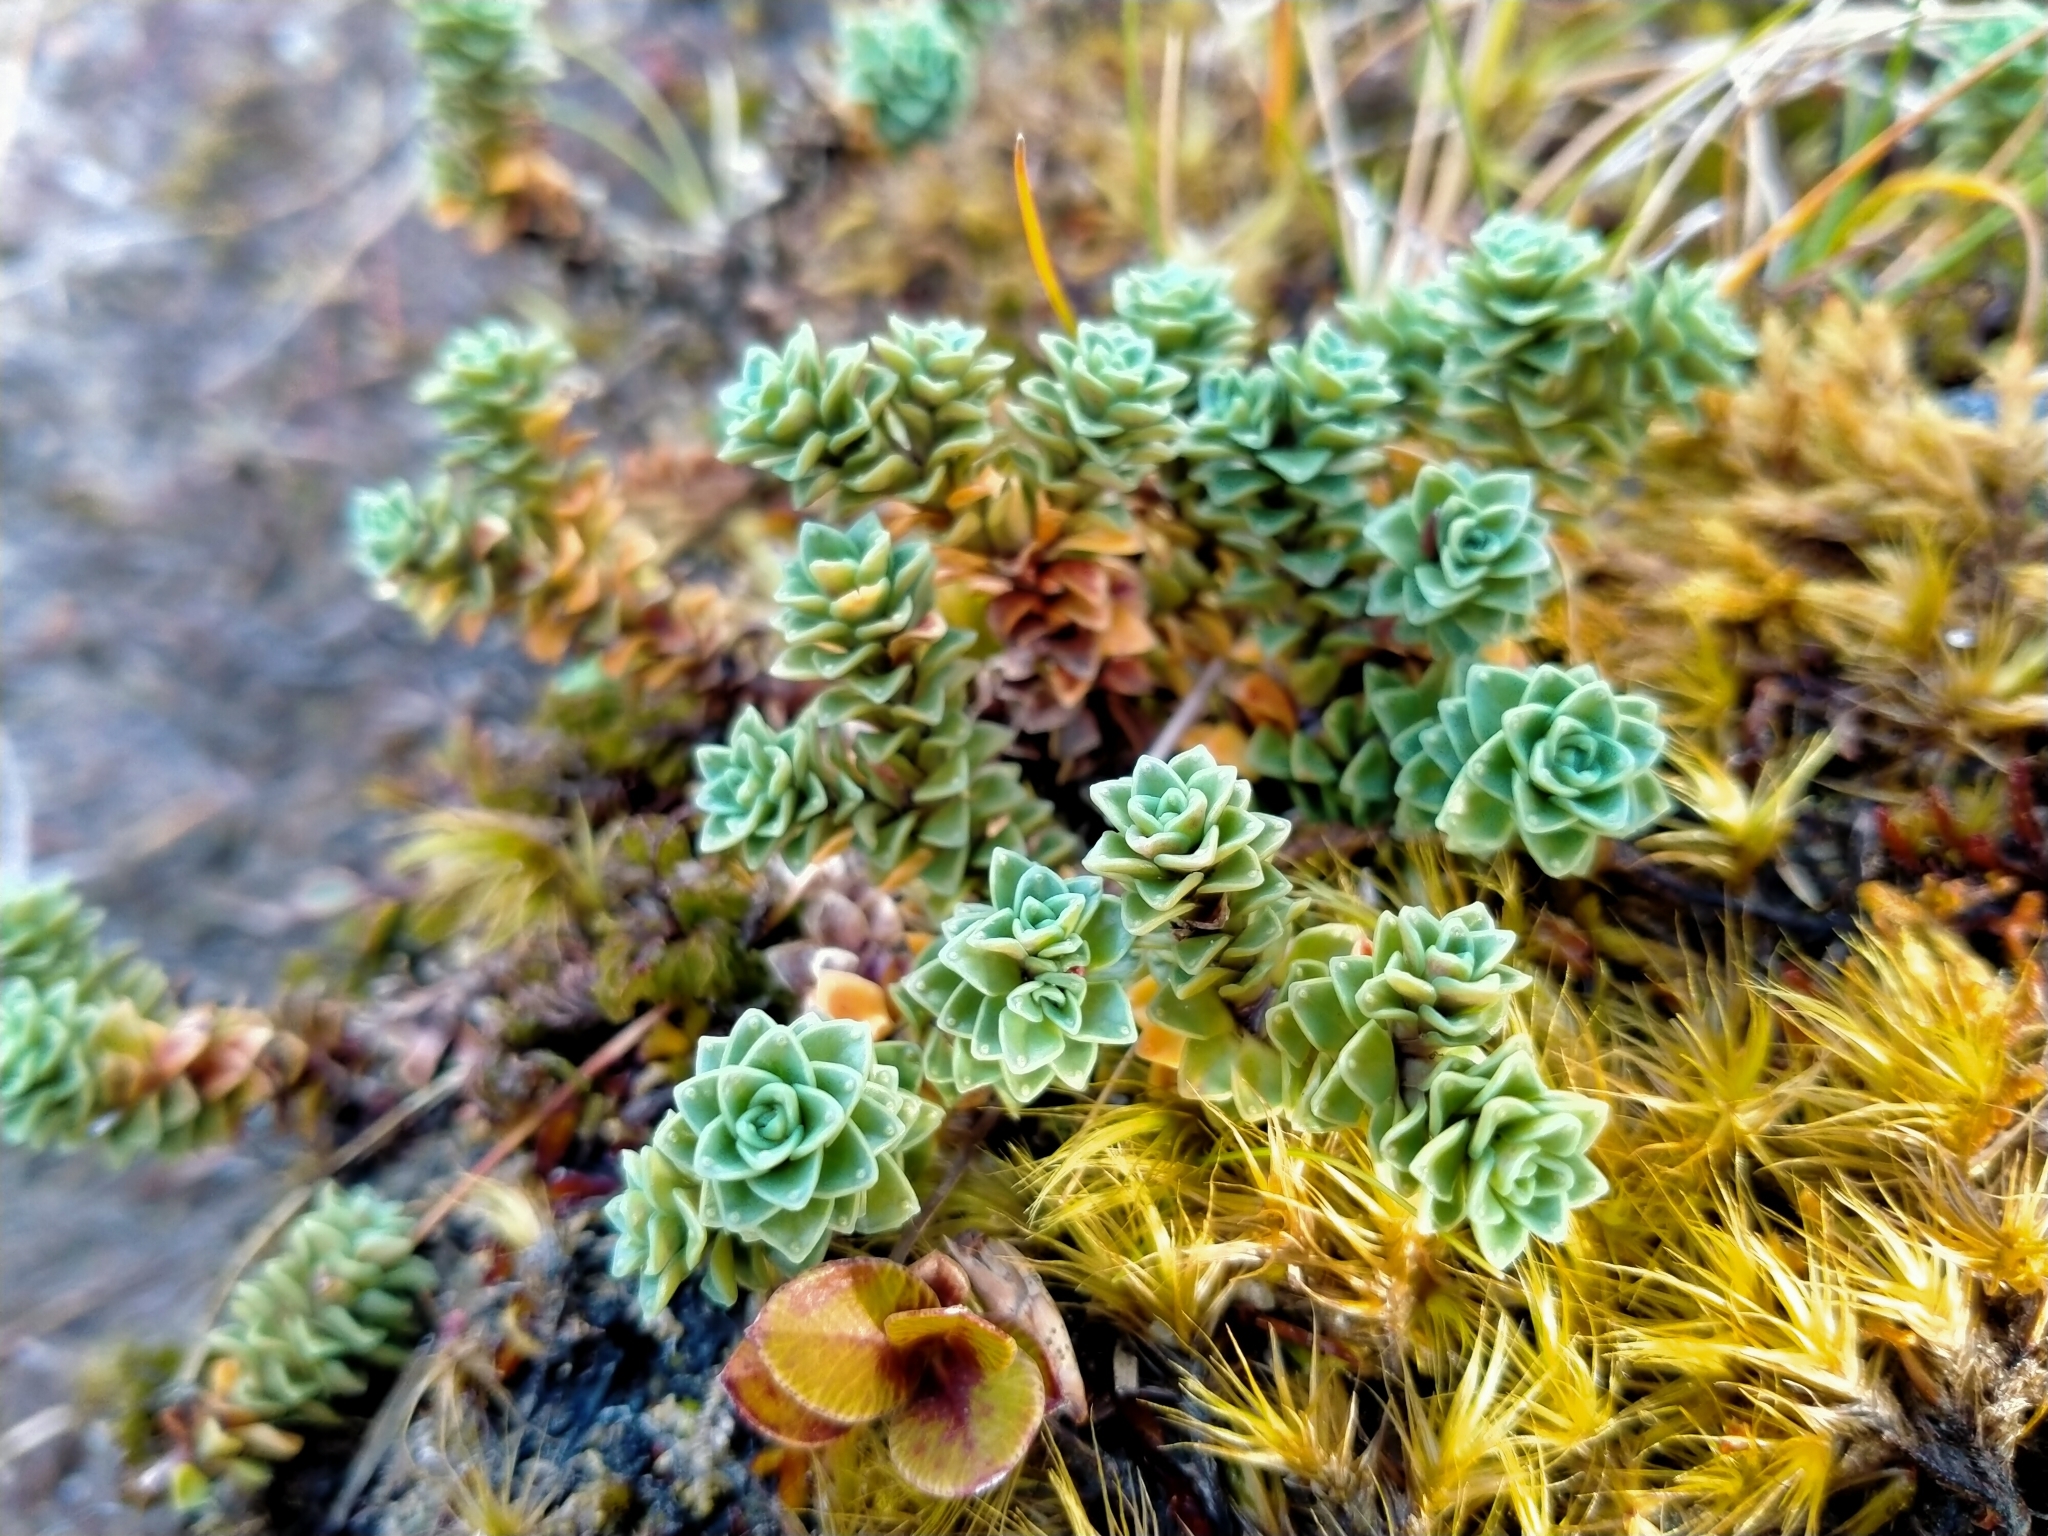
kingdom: Plantae
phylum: Tracheophyta
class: Magnoliopsida
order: Asterales
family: Stylidiaceae
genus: Forstera
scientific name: Forstera sedifolia
